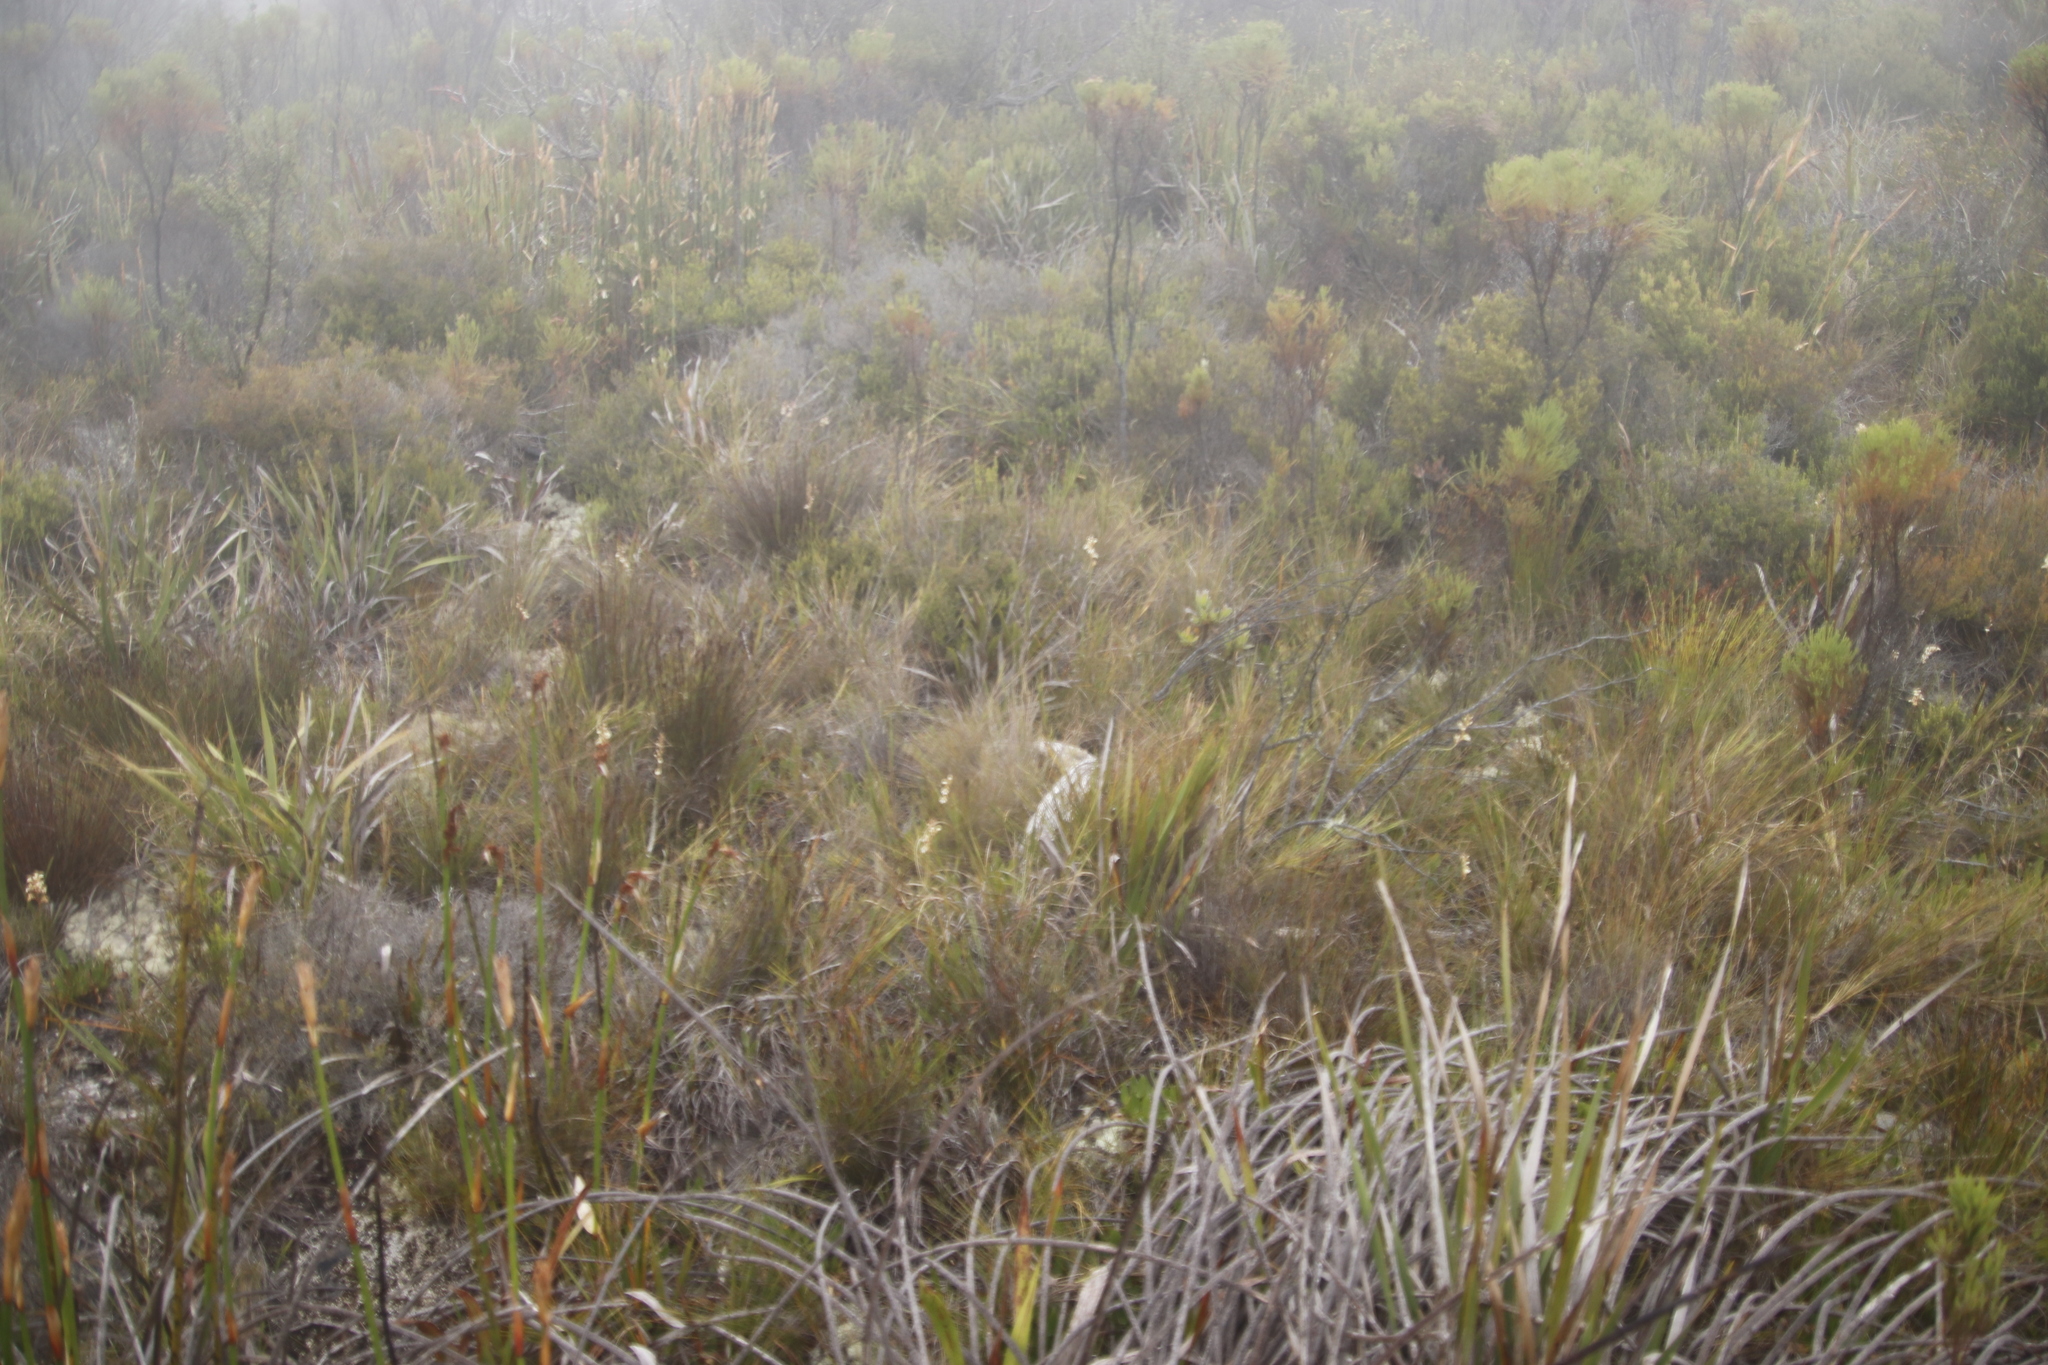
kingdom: Plantae
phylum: Tracheophyta
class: Liliopsida
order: Asparagales
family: Iridaceae
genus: Tritoniopsis
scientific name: Tritoniopsis unguicularis
